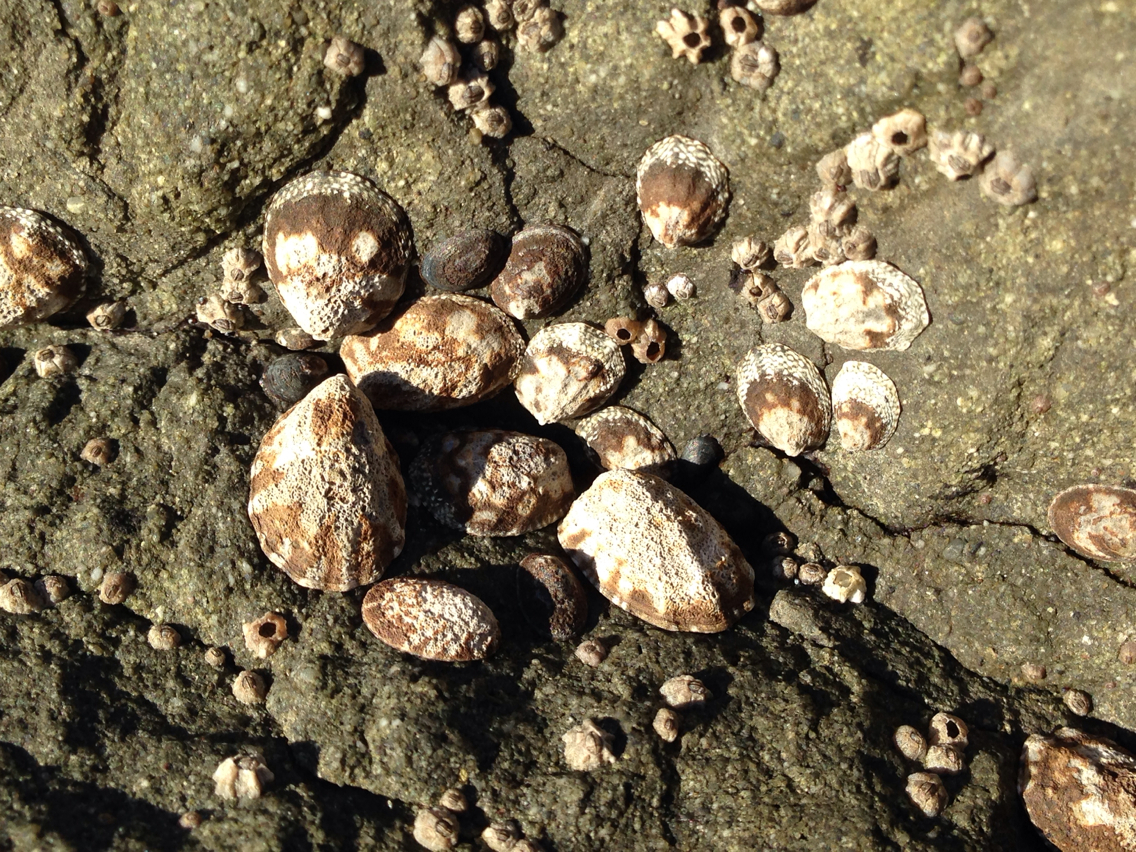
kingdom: Animalia
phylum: Mollusca
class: Gastropoda
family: Lottiidae
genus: Lottia
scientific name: Lottia digitalis
